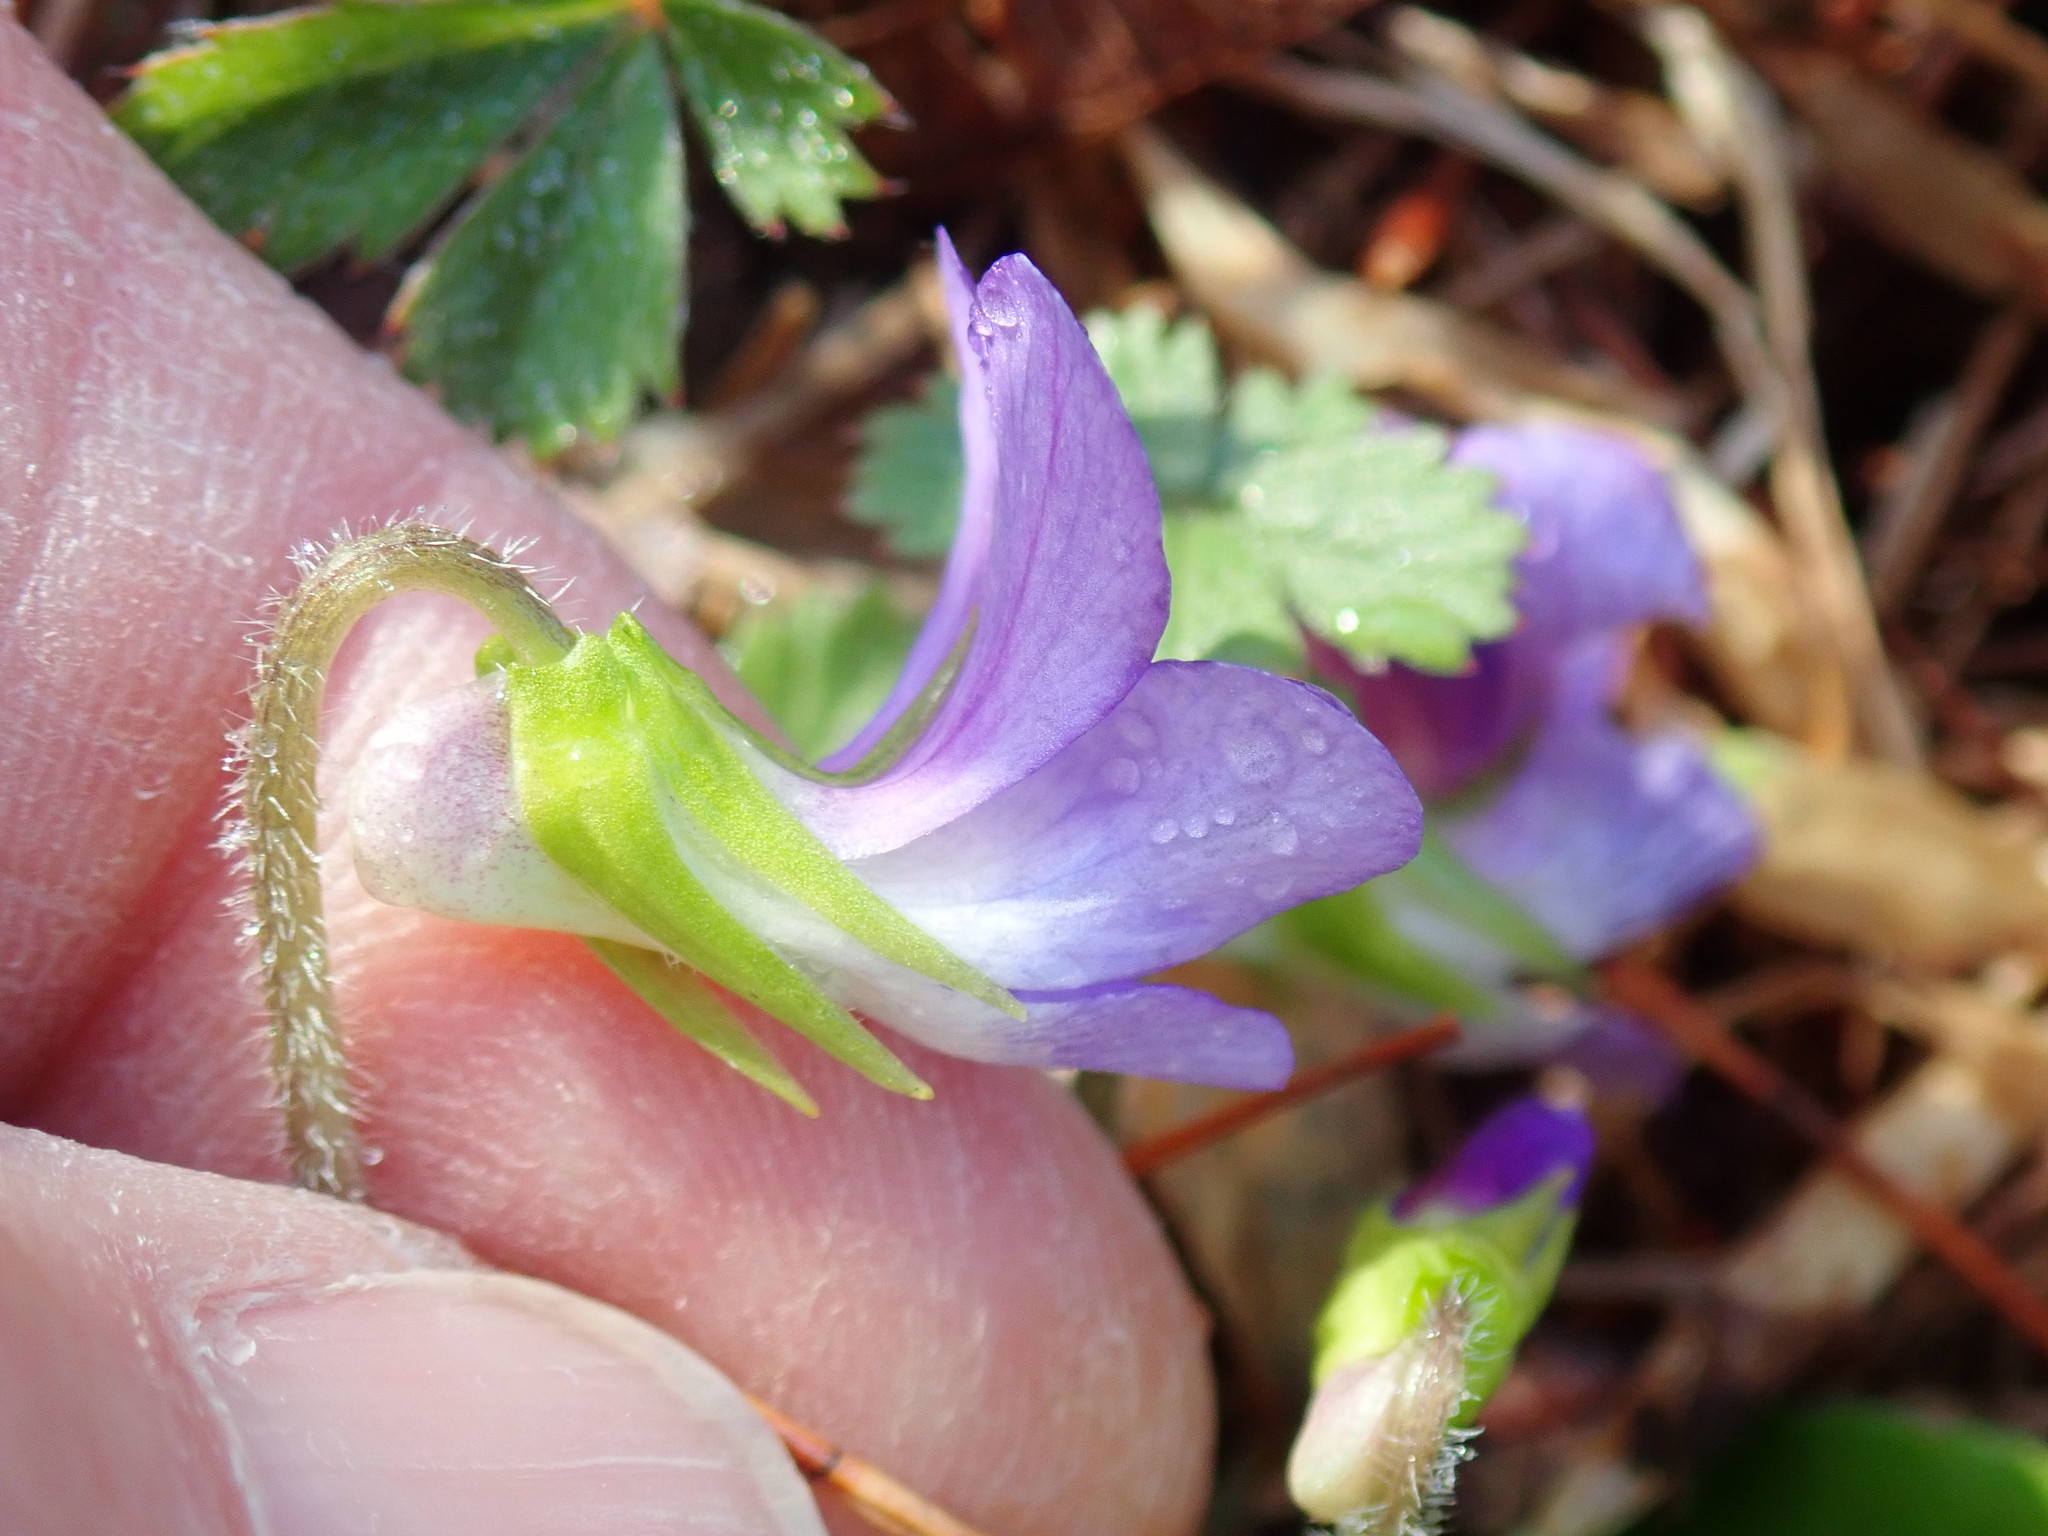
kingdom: Plantae
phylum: Tracheophyta
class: Magnoliopsida
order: Malpighiales
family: Violaceae
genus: Viola
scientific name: Viola sagittata
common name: Arrowhead violet
